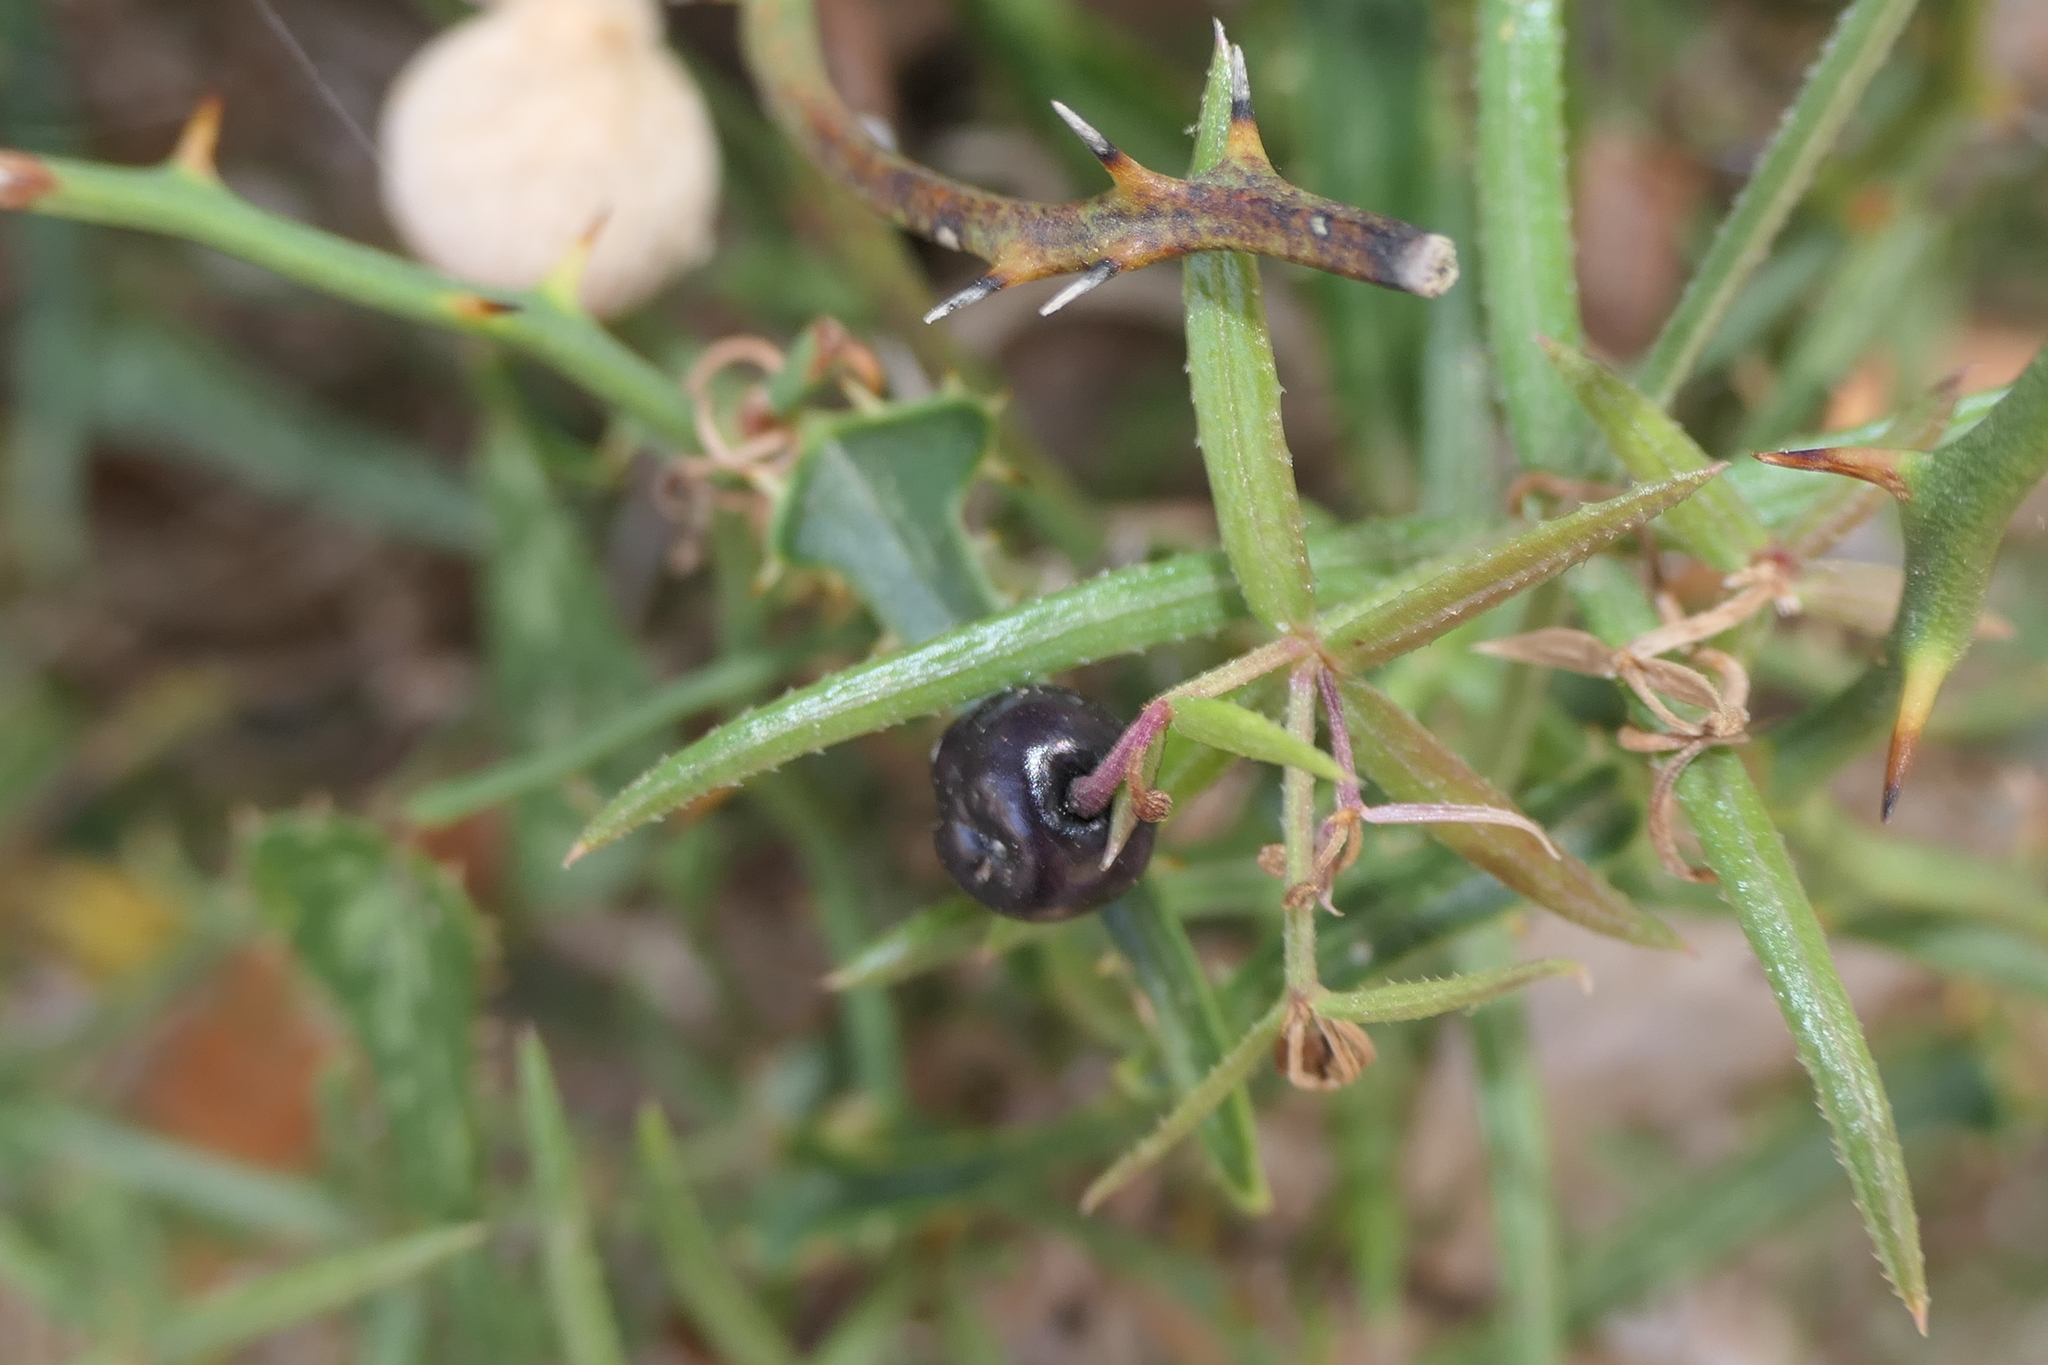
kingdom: Plantae
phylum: Tracheophyta
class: Magnoliopsida
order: Gentianales
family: Rubiaceae
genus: Rubia
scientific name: Rubia balearica
